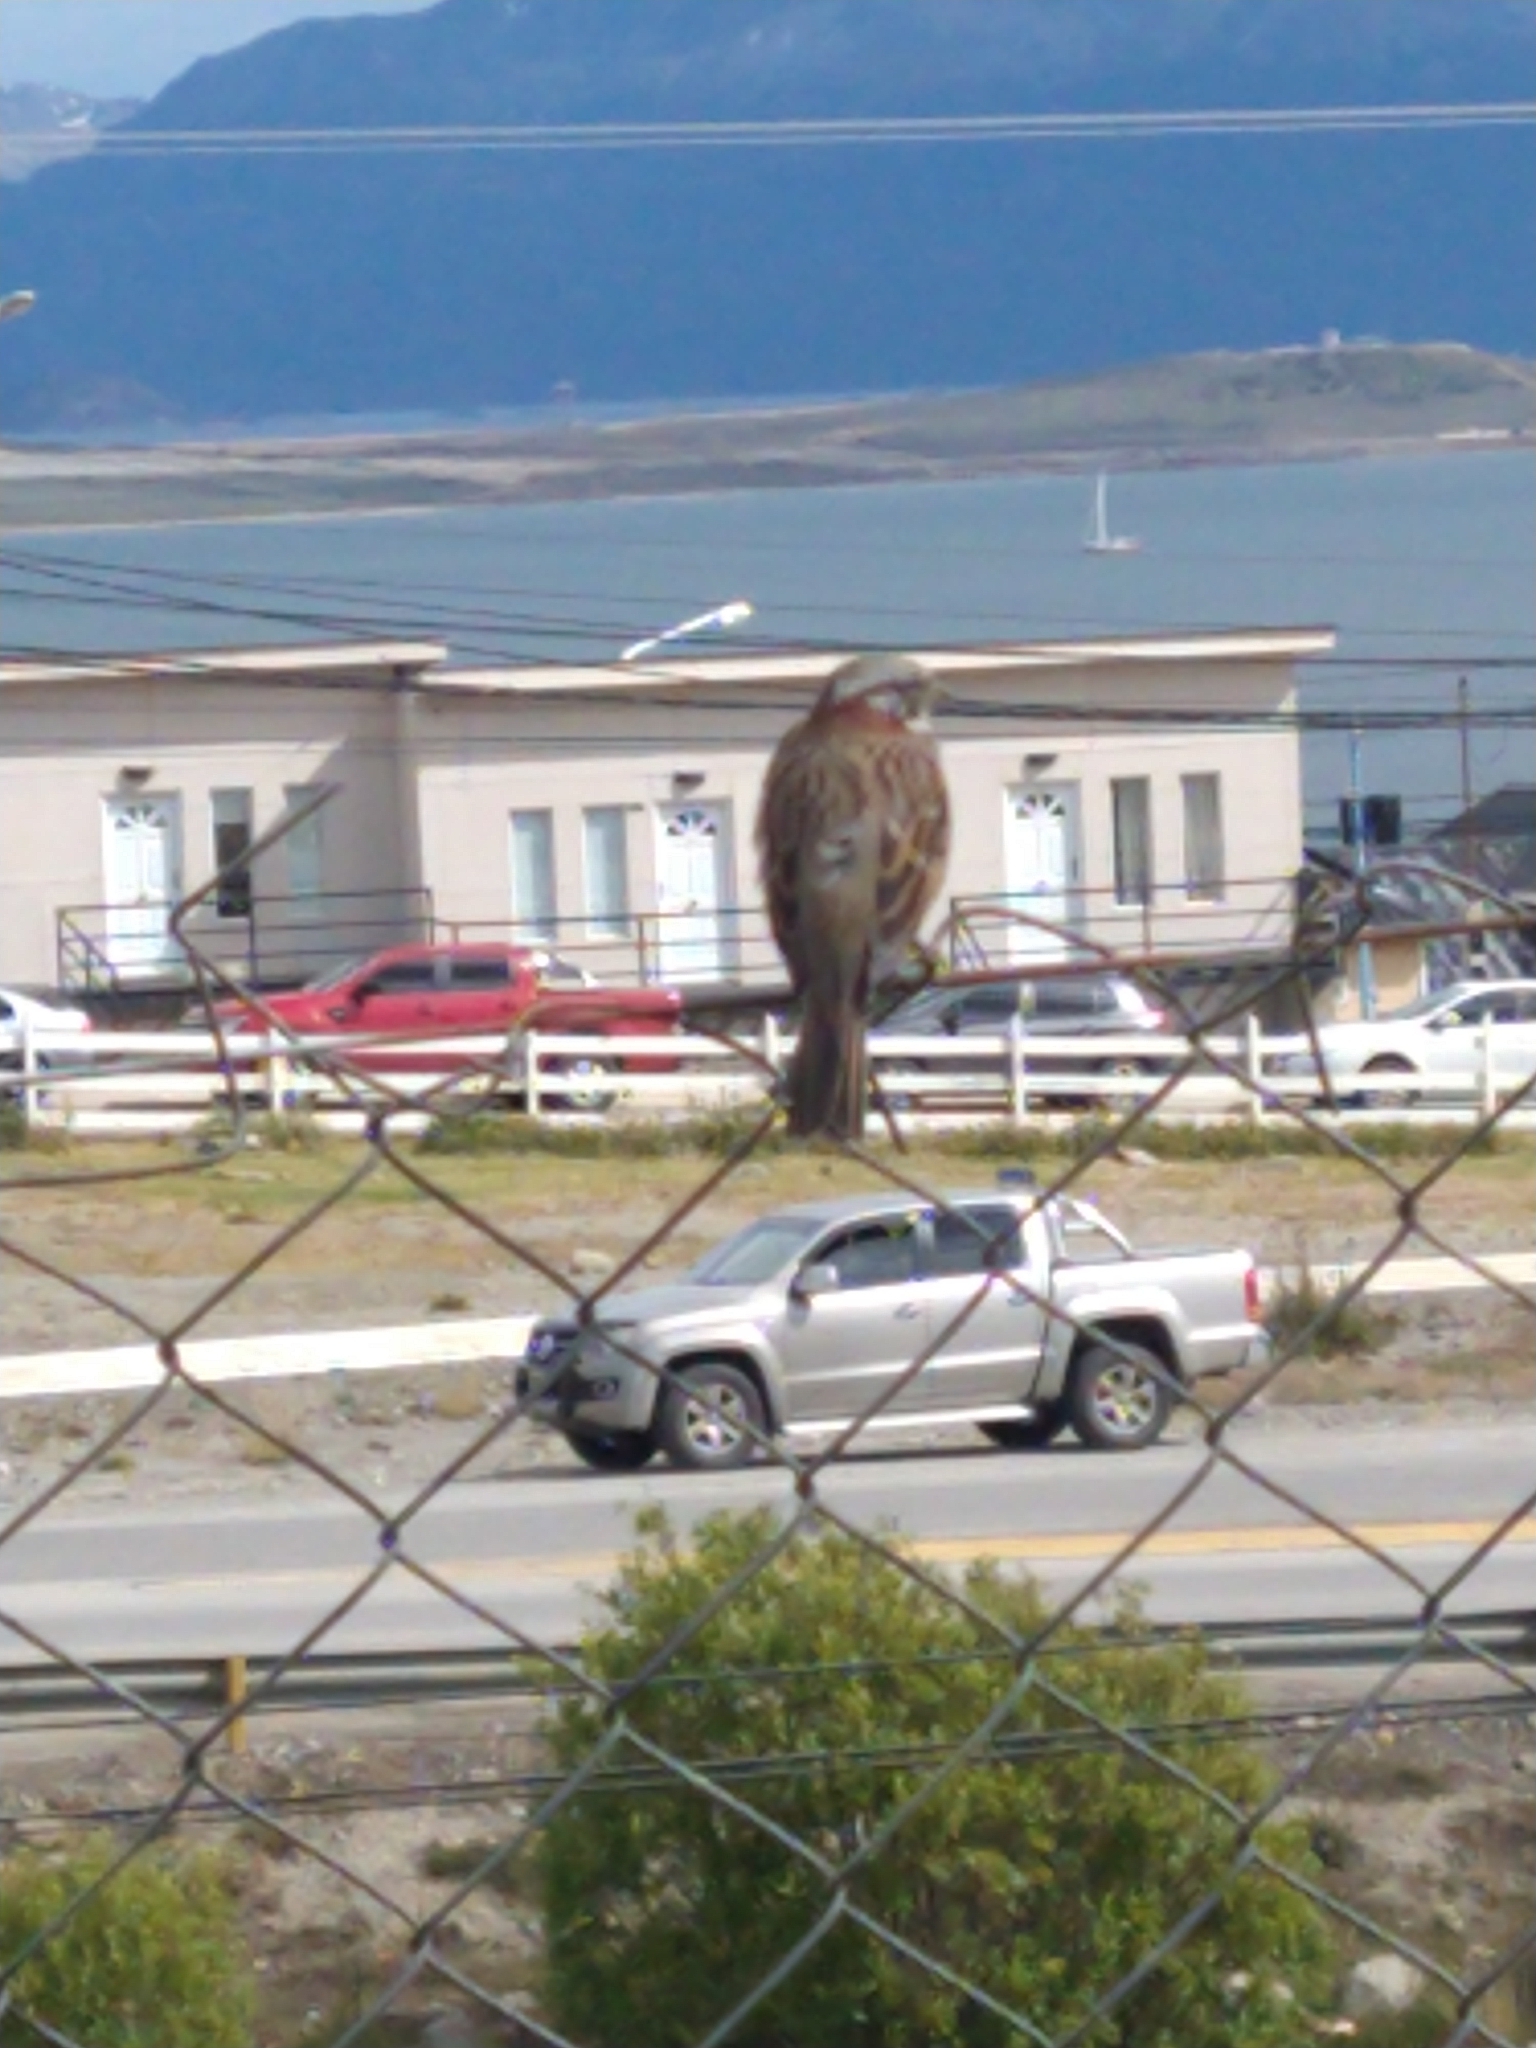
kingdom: Animalia
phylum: Chordata
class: Aves
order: Passeriformes
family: Passerellidae
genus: Zonotrichia
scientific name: Zonotrichia capensis
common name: Rufous-collared sparrow
